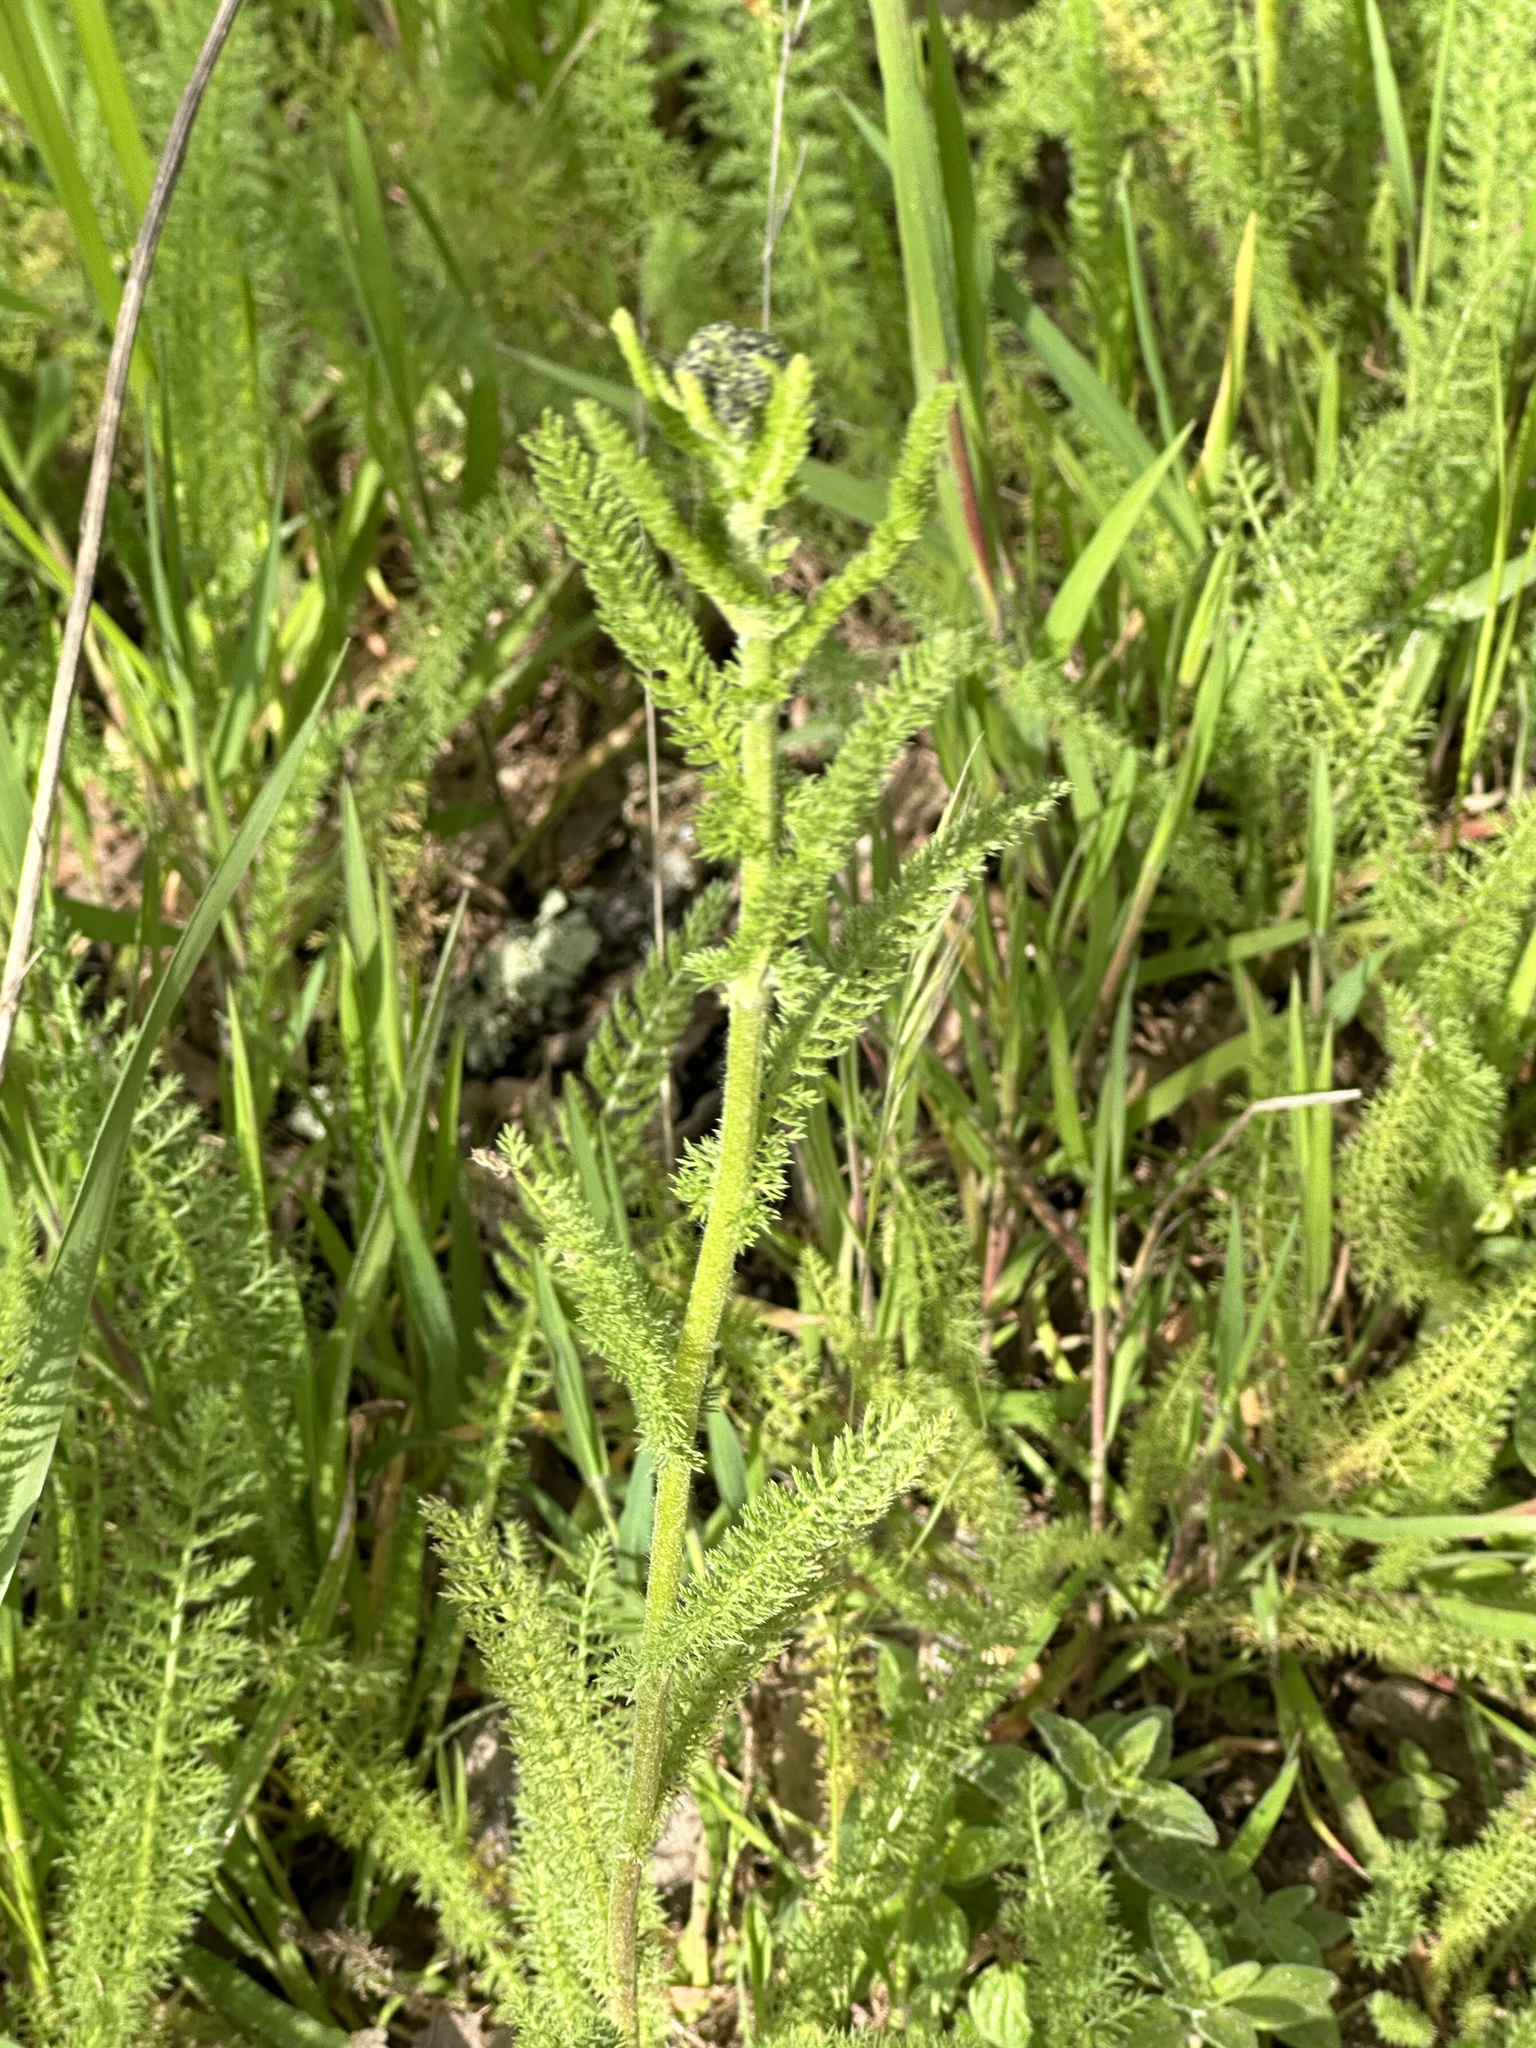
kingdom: Plantae
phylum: Tracheophyta
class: Magnoliopsida
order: Asterales
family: Asteraceae
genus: Achillea
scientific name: Achillea millefolium
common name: Yarrow
